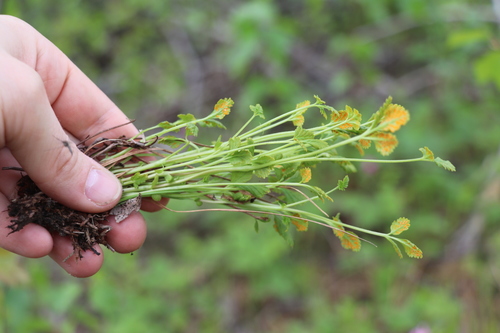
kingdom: Fungi
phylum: Basidiomycota
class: Pucciniomycetes
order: Pucciniales
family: Pucciniastraceae
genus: Pucciniastrum
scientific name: Pucciniastrum arcticum
